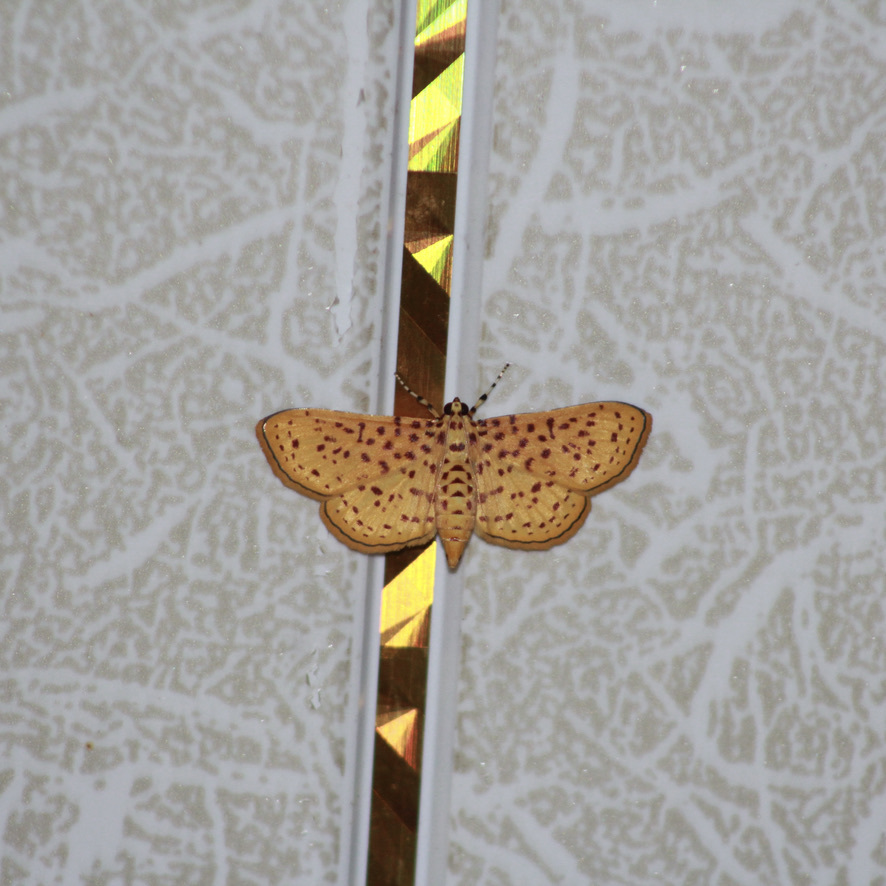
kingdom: Animalia
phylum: Arthropoda
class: Insecta
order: Lepidoptera
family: Crambidae
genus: Polygrammodes
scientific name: Polygrammodes elevata
